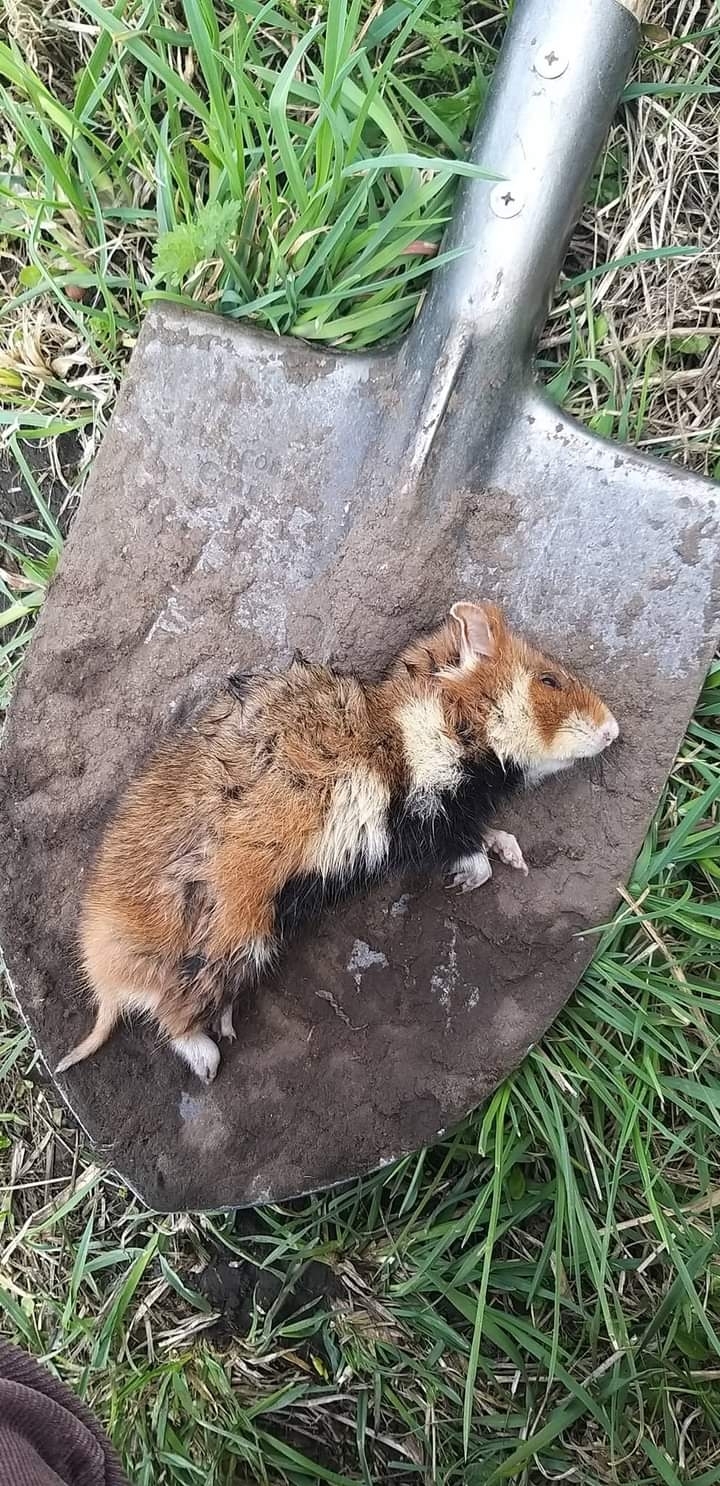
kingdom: Animalia
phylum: Chordata
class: Mammalia
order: Rodentia
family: Cricetidae
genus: Cricetus
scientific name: Cricetus cricetus
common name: Common hamster
